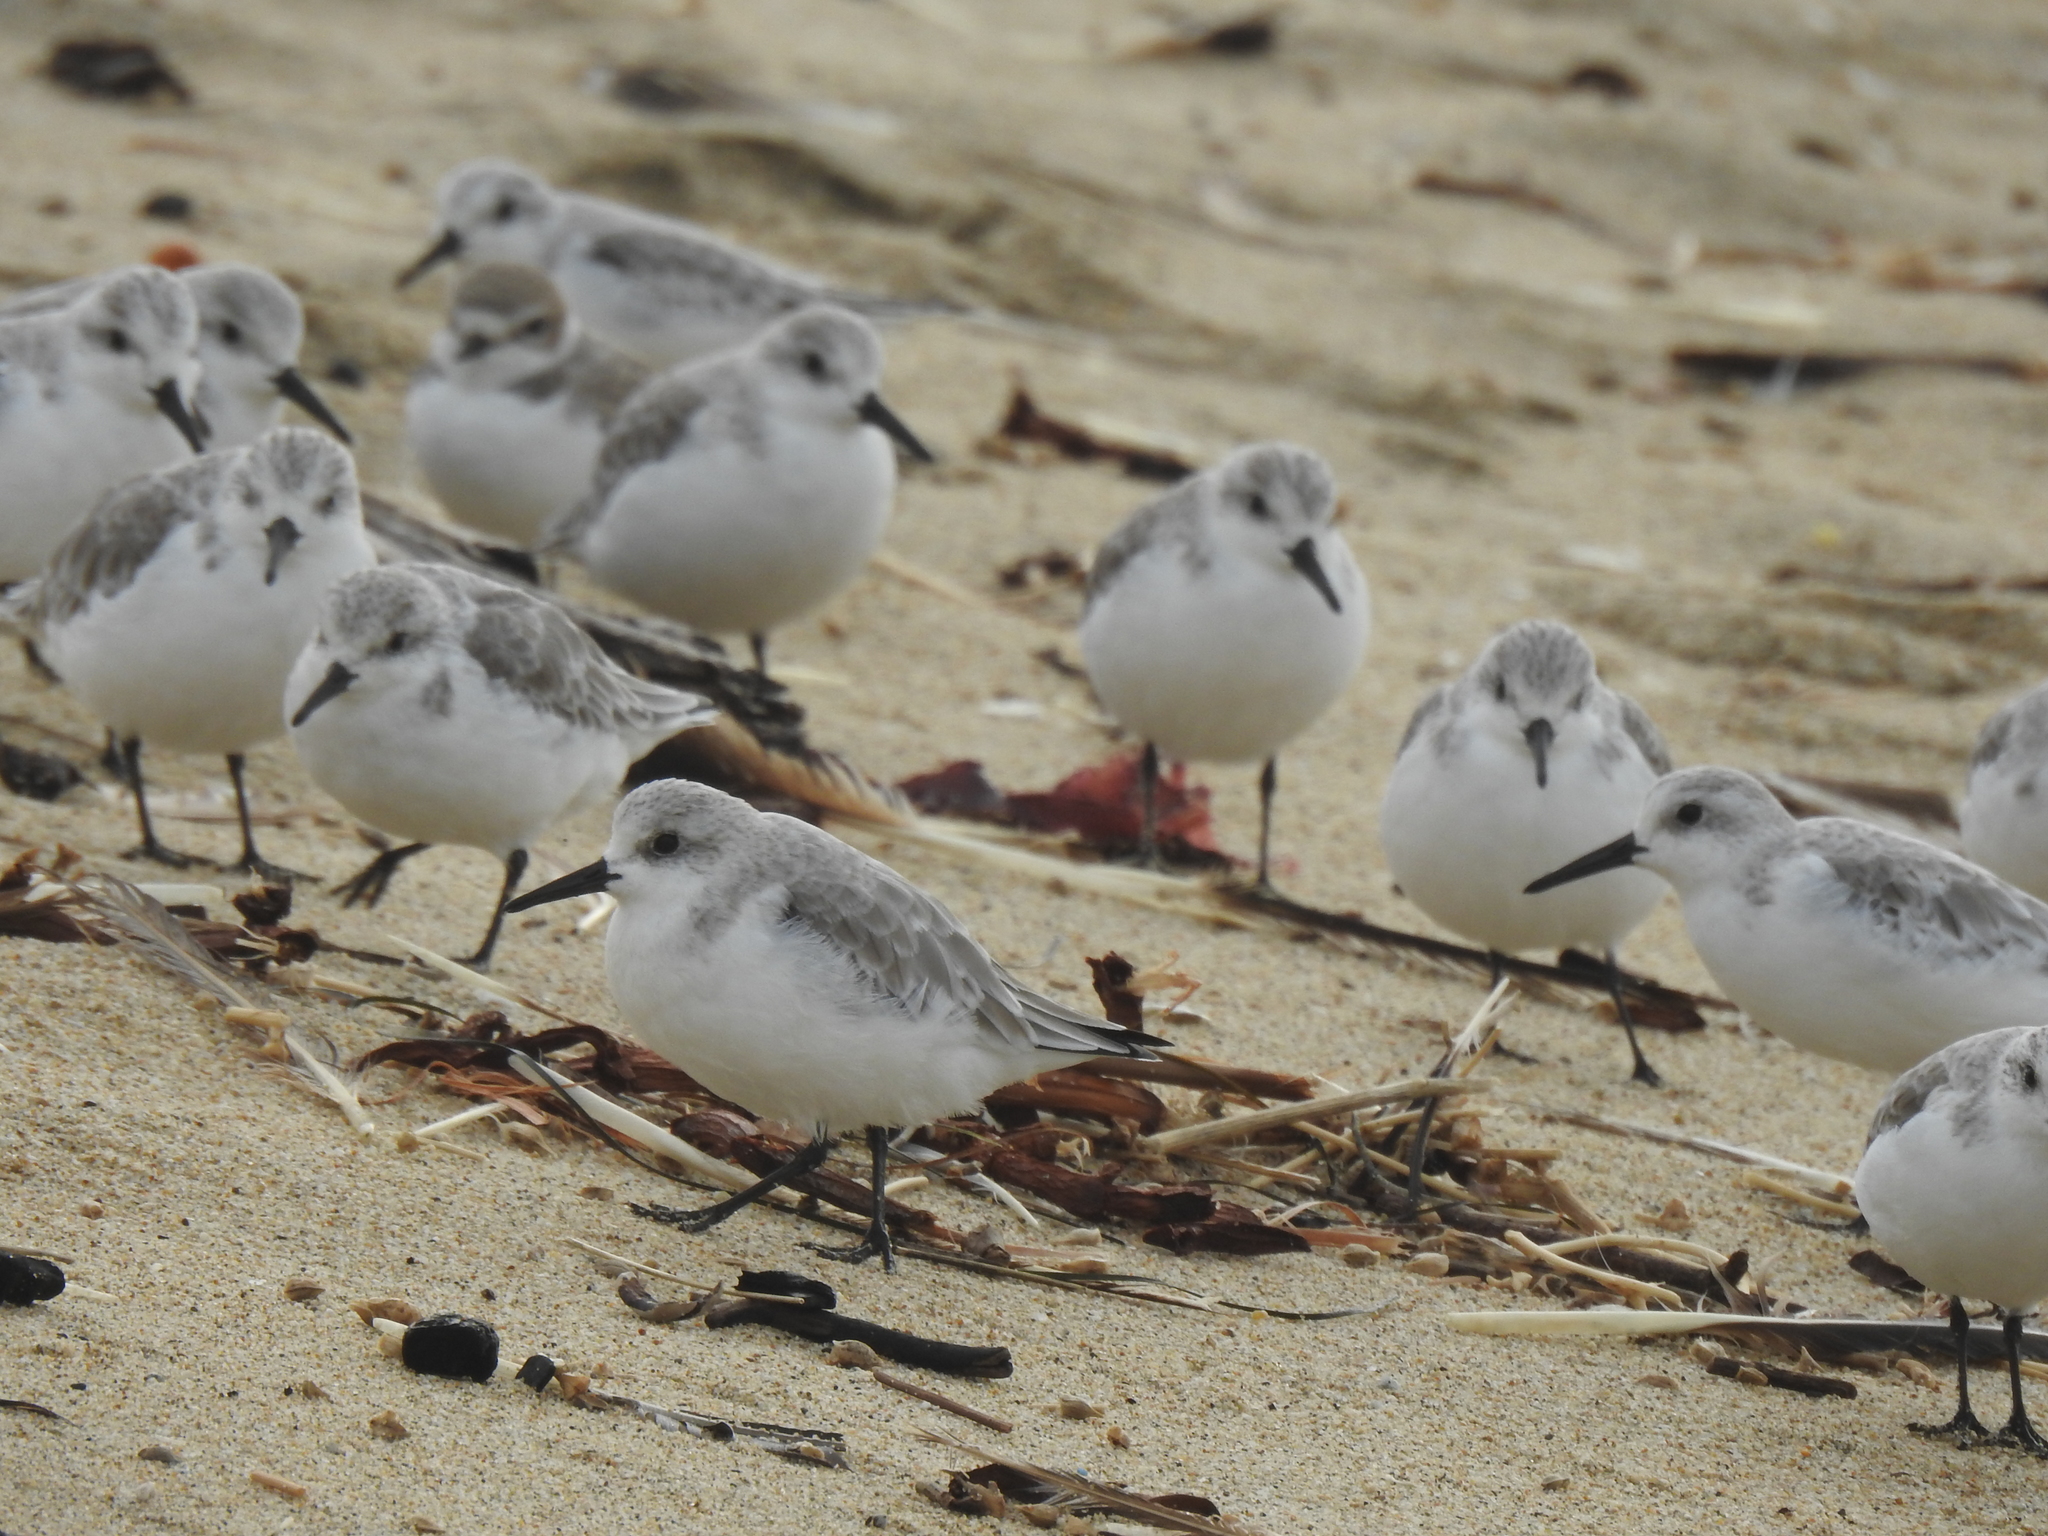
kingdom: Animalia
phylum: Chordata
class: Aves
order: Charadriiformes
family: Scolopacidae
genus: Calidris
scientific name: Calidris alba
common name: Sanderling
